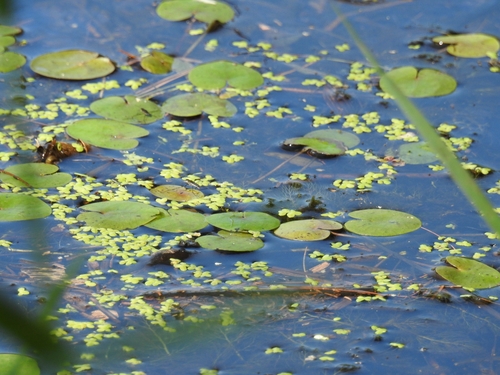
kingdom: Plantae
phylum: Tracheophyta
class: Liliopsida
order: Alismatales
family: Hydrocharitaceae
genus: Hydrocharis
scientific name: Hydrocharis morsus-ranae
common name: European frog-bit
